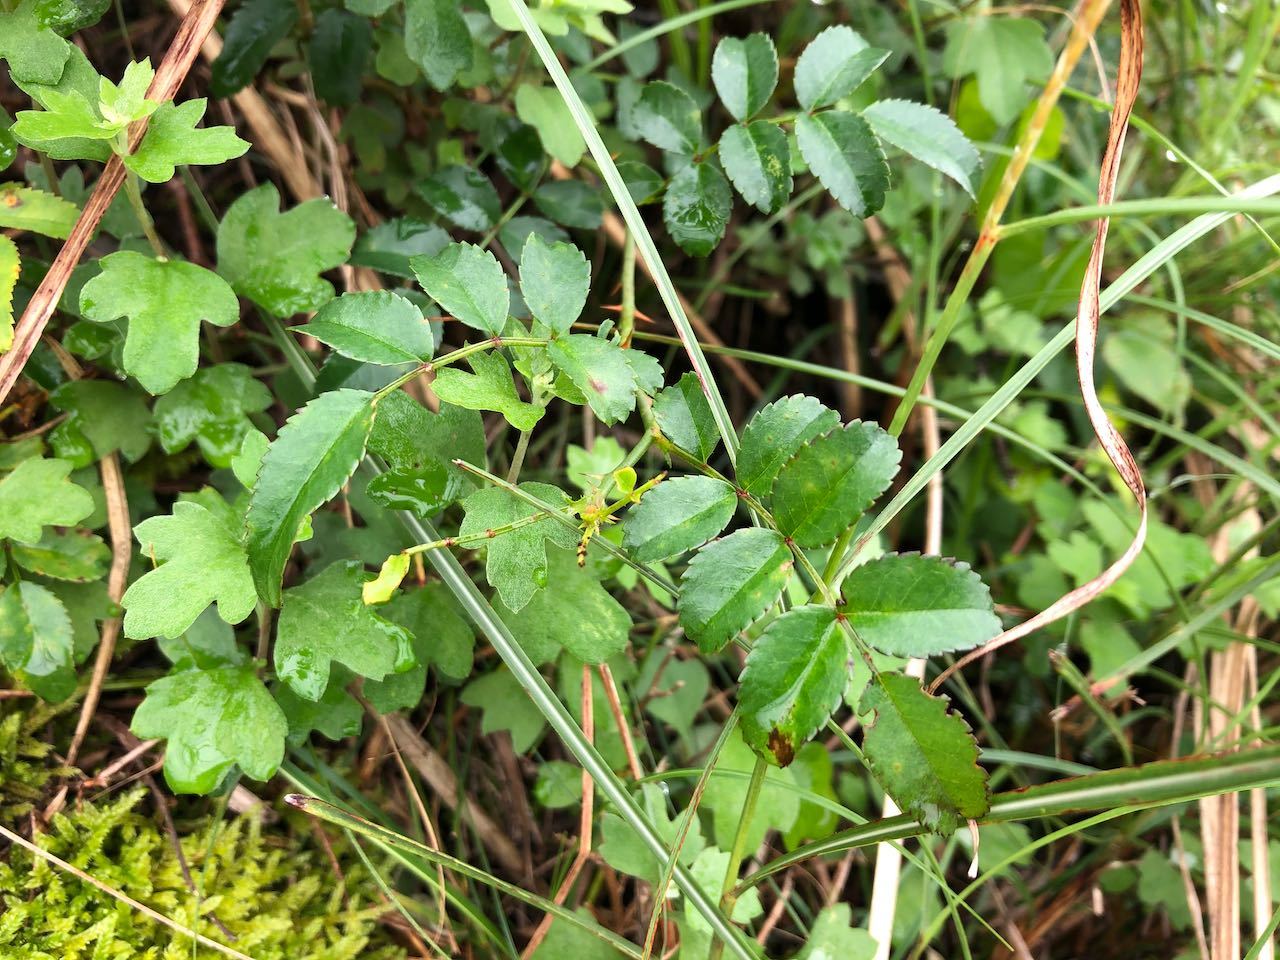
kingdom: Plantae
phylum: Tracheophyta
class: Magnoliopsida
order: Rosales
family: Rosaceae
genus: Rosa
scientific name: Rosa lucieae
